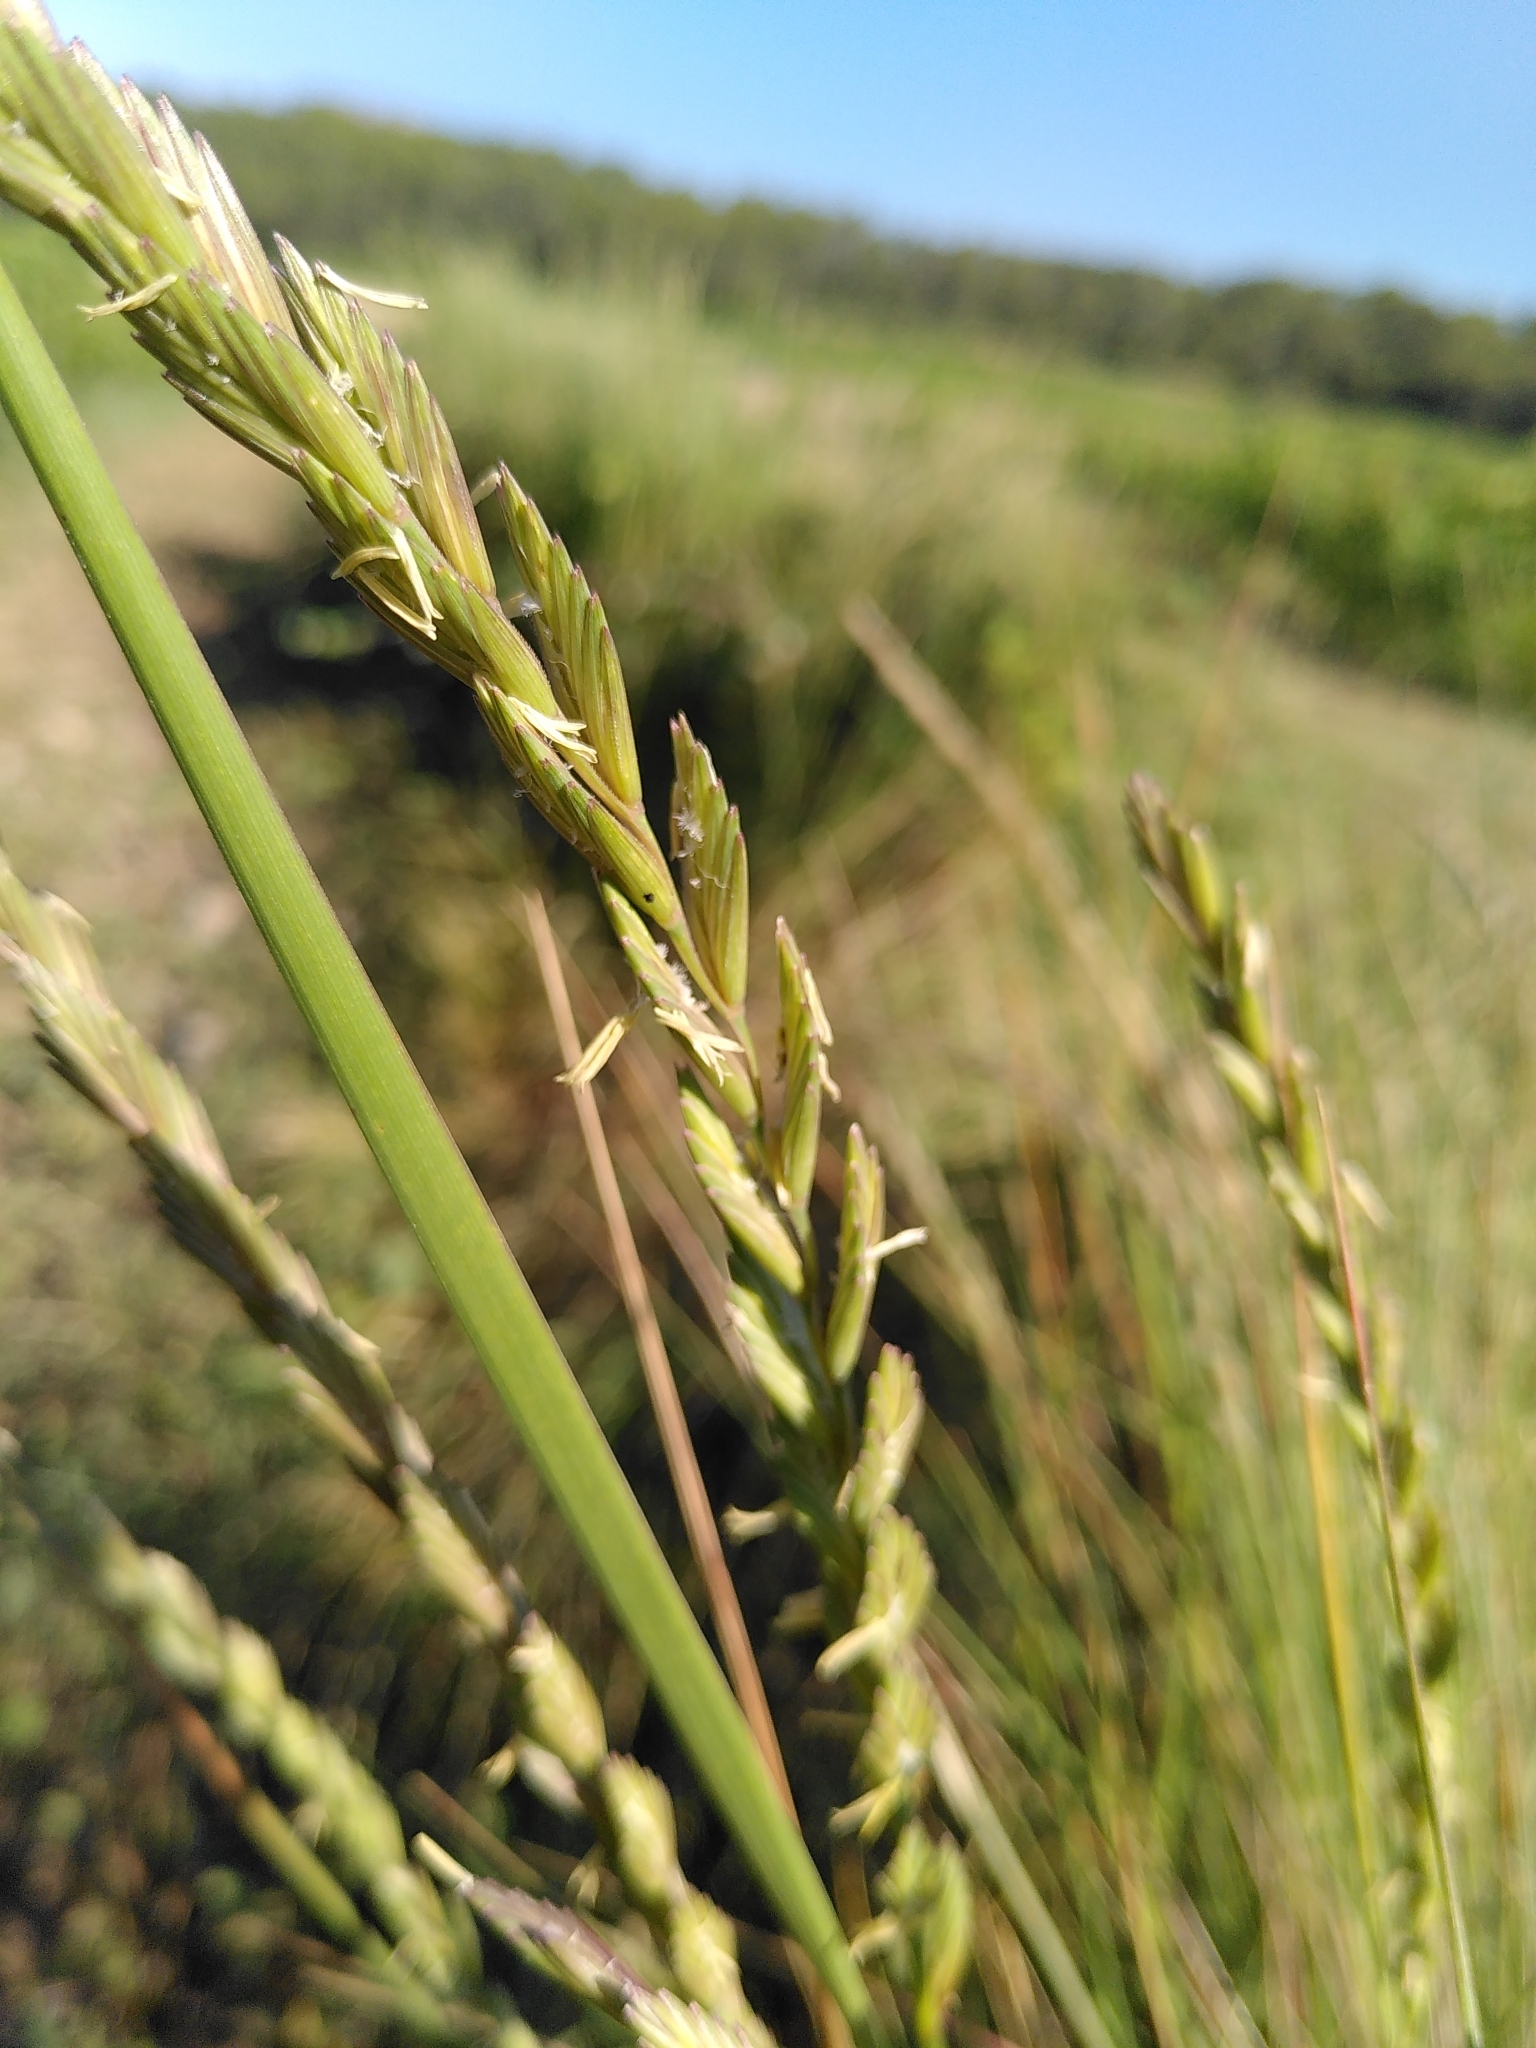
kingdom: Plantae
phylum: Tracheophyta
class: Liliopsida
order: Poales
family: Poaceae
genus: Elymus
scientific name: Elymus repens
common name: Quackgrass
